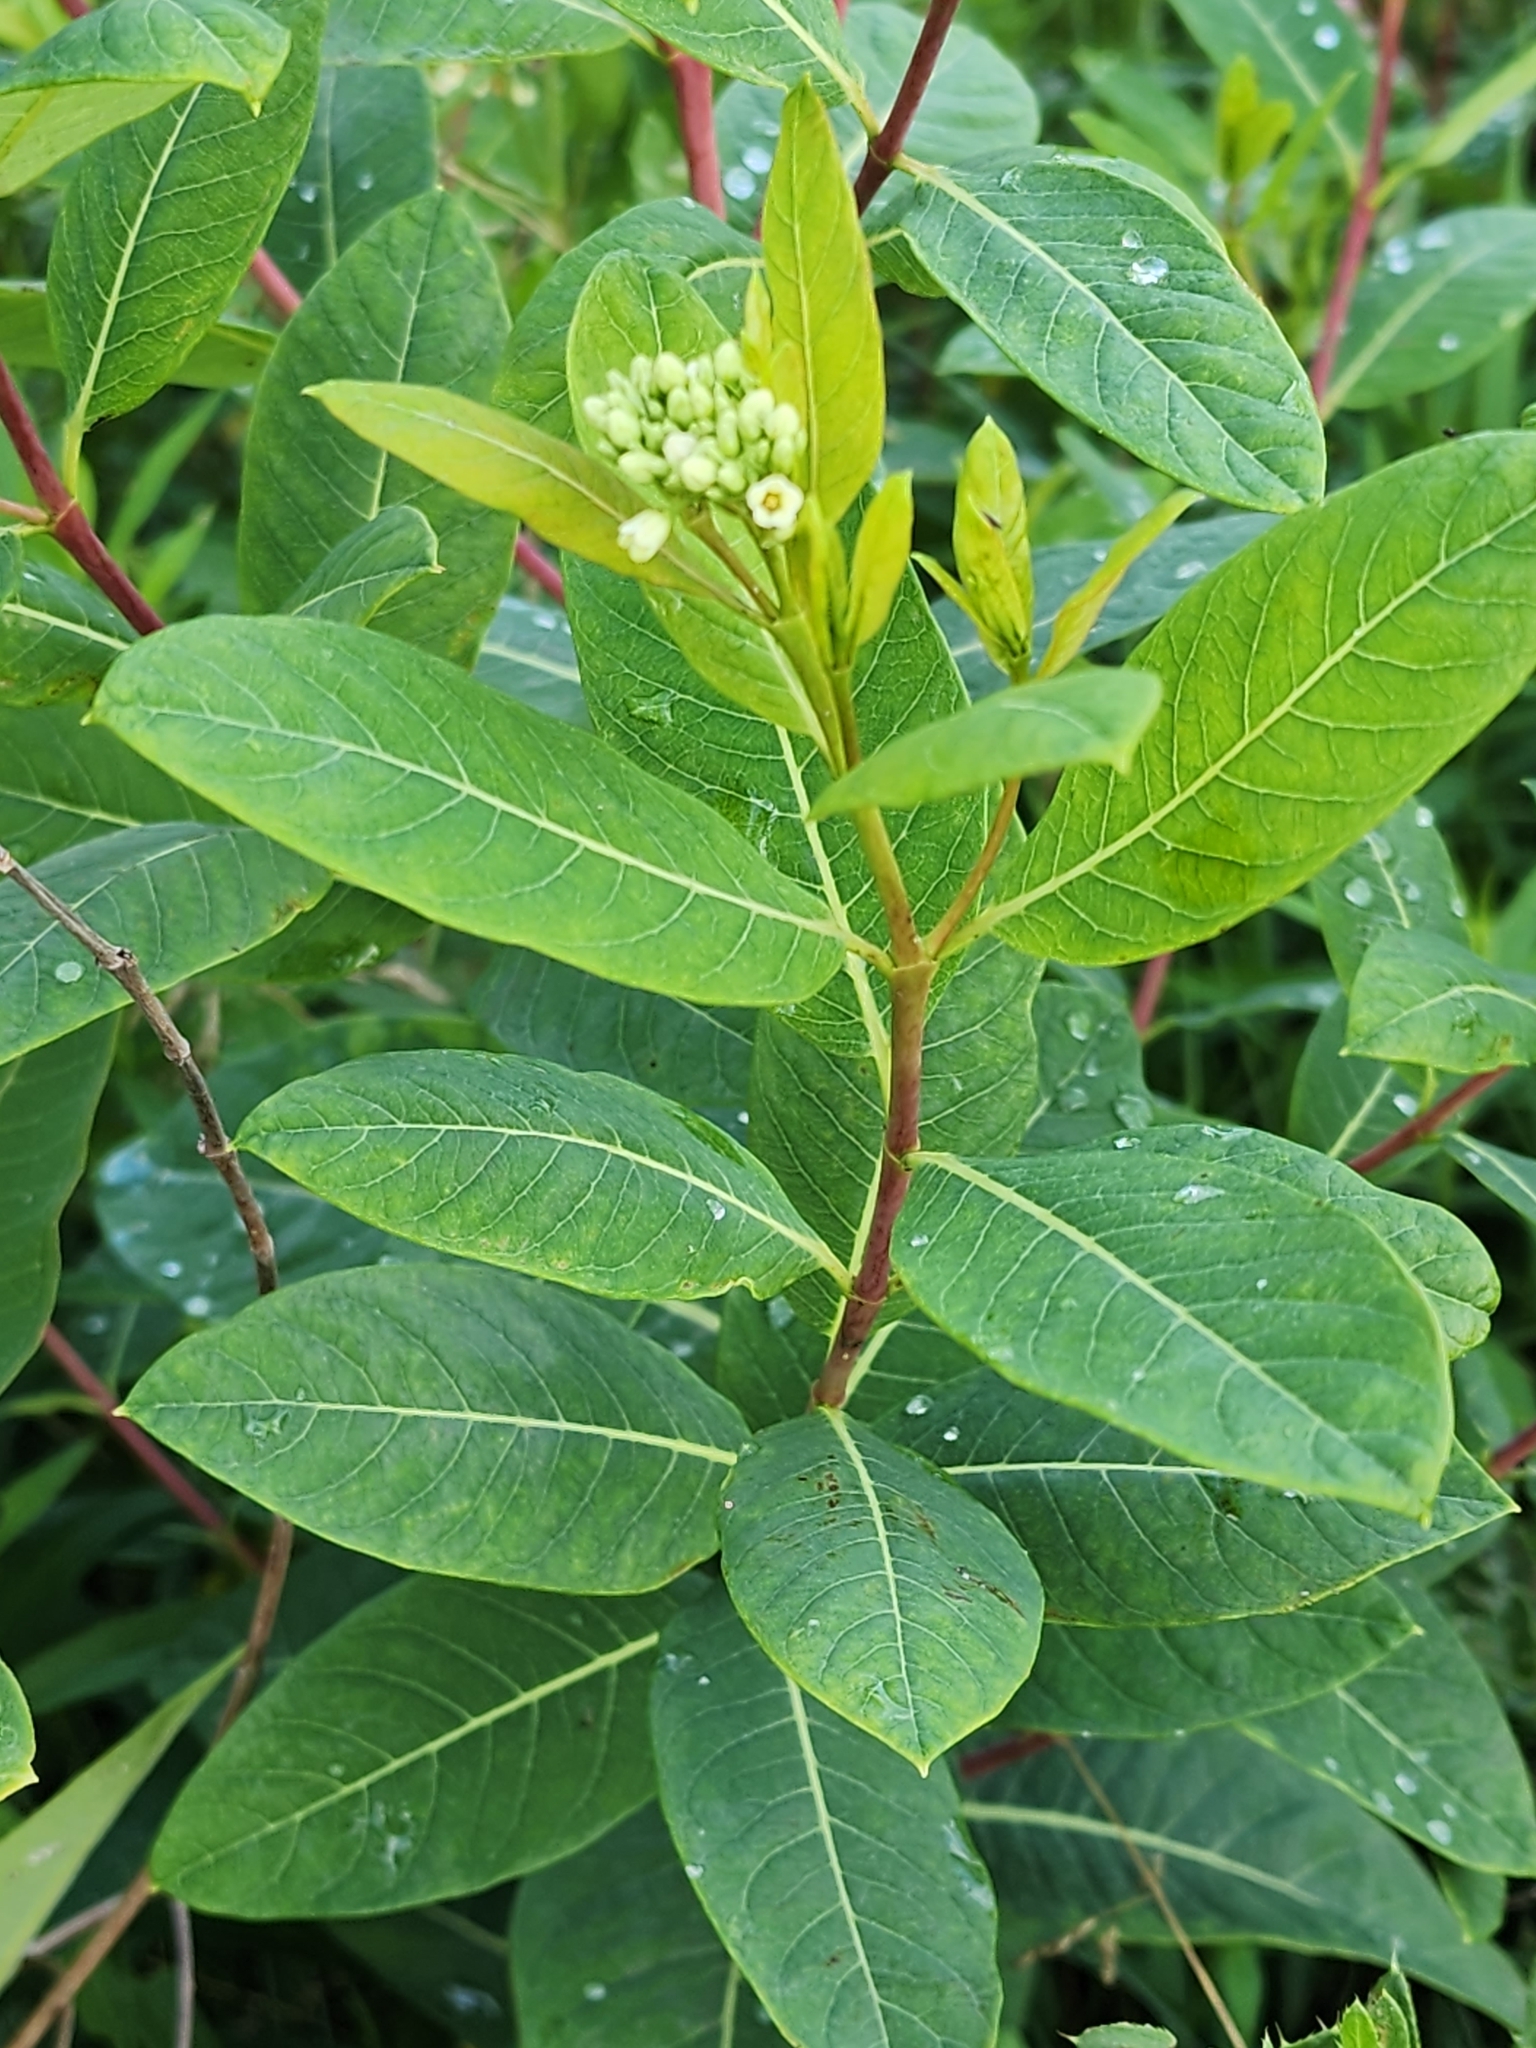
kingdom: Plantae
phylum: Tracheophyta
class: Magnoliopsida
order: Gentianales
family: Apocynaceae
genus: Apocynum
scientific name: Apocynum cannabinum
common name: Hemp dogbane
